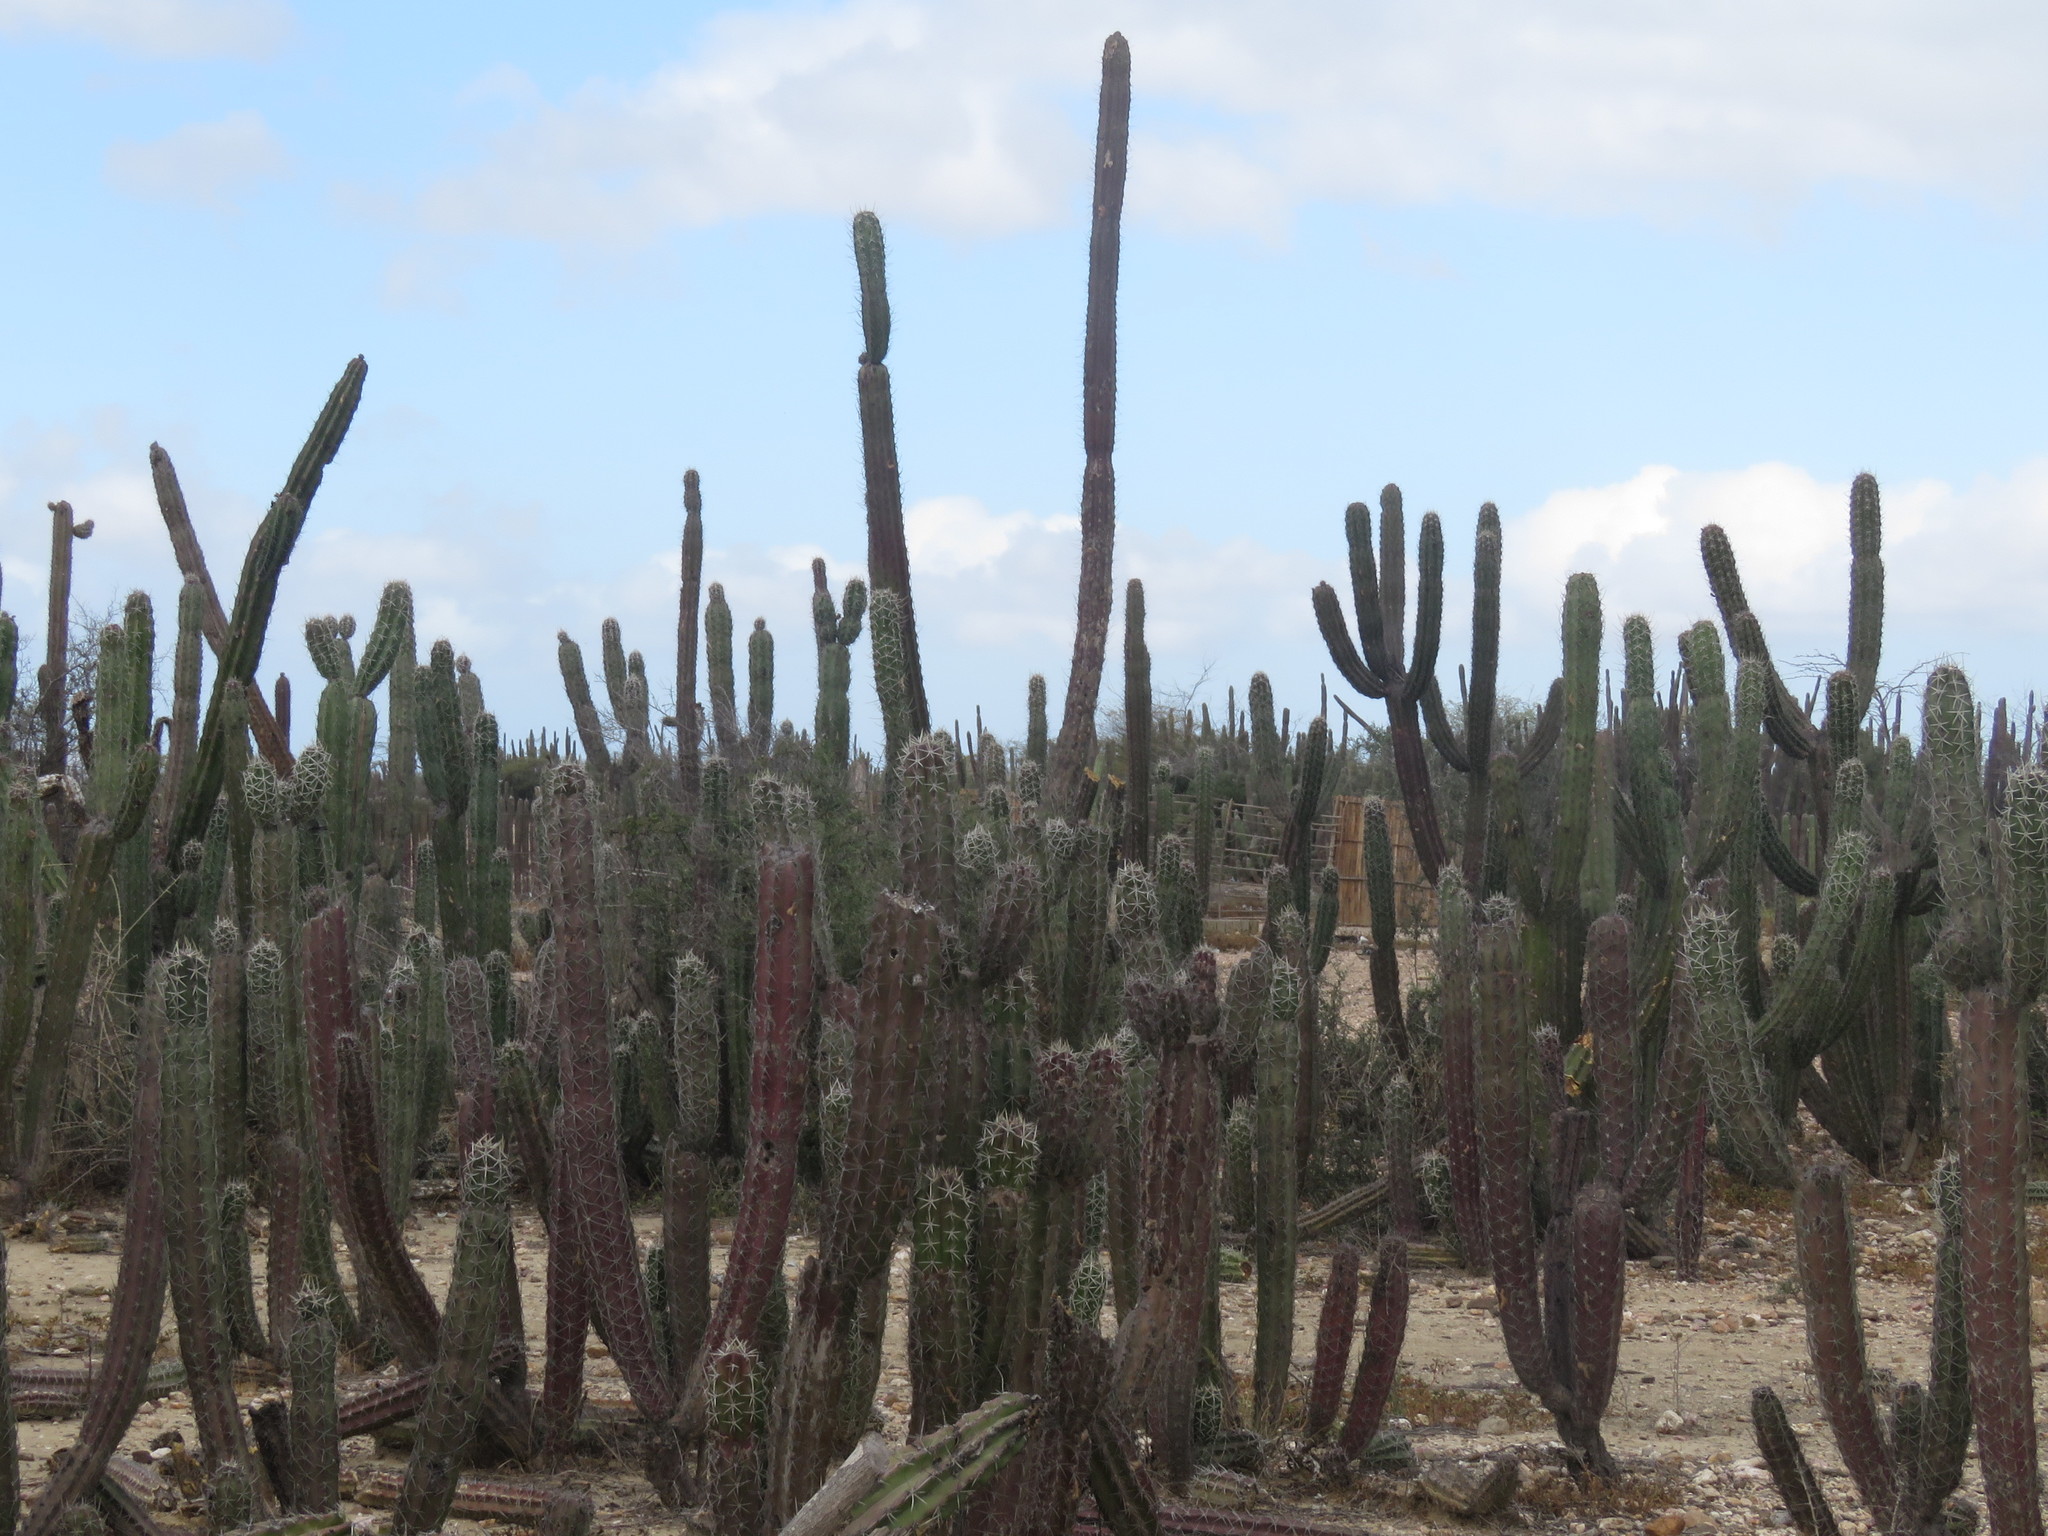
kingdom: Plantae
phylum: Tracheophyta
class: Magnoliopsida
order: Caryophyllales
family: Cactaceae
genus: Stenocereus
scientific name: Stenocereus griseus
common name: Tall candelabra cactus
